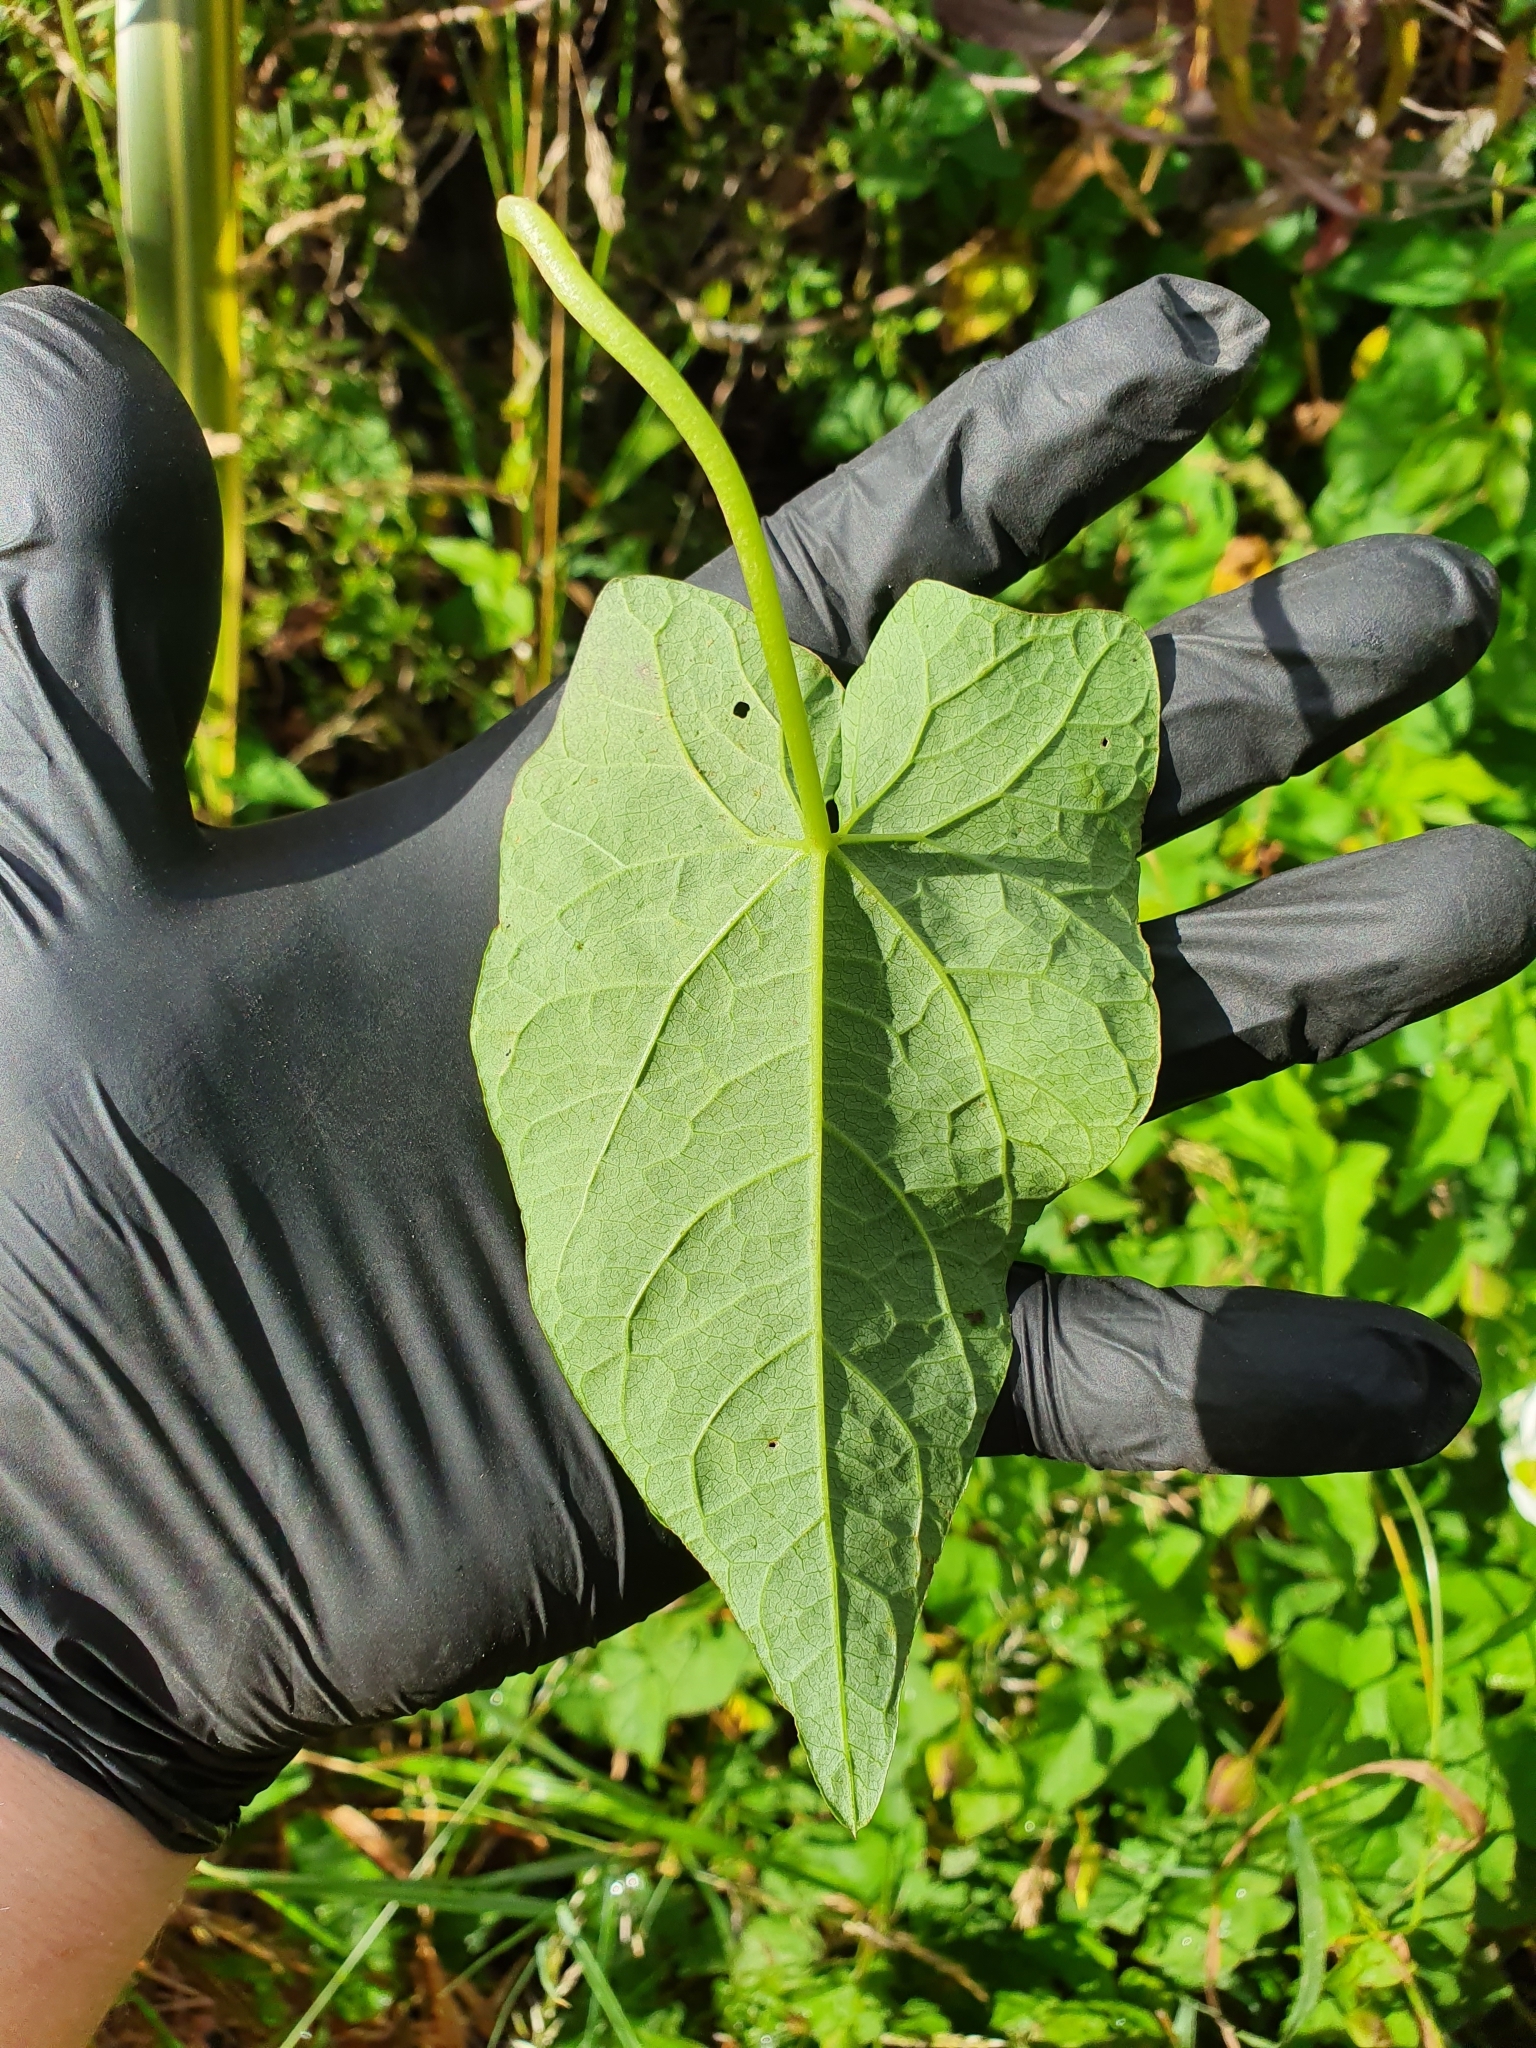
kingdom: Plantae
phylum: Tracheophyta
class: Magnoliopsida
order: Solanales
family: Convolvulaceae
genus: Calystegia
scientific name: Calystegia silvatica
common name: Large bindweed
